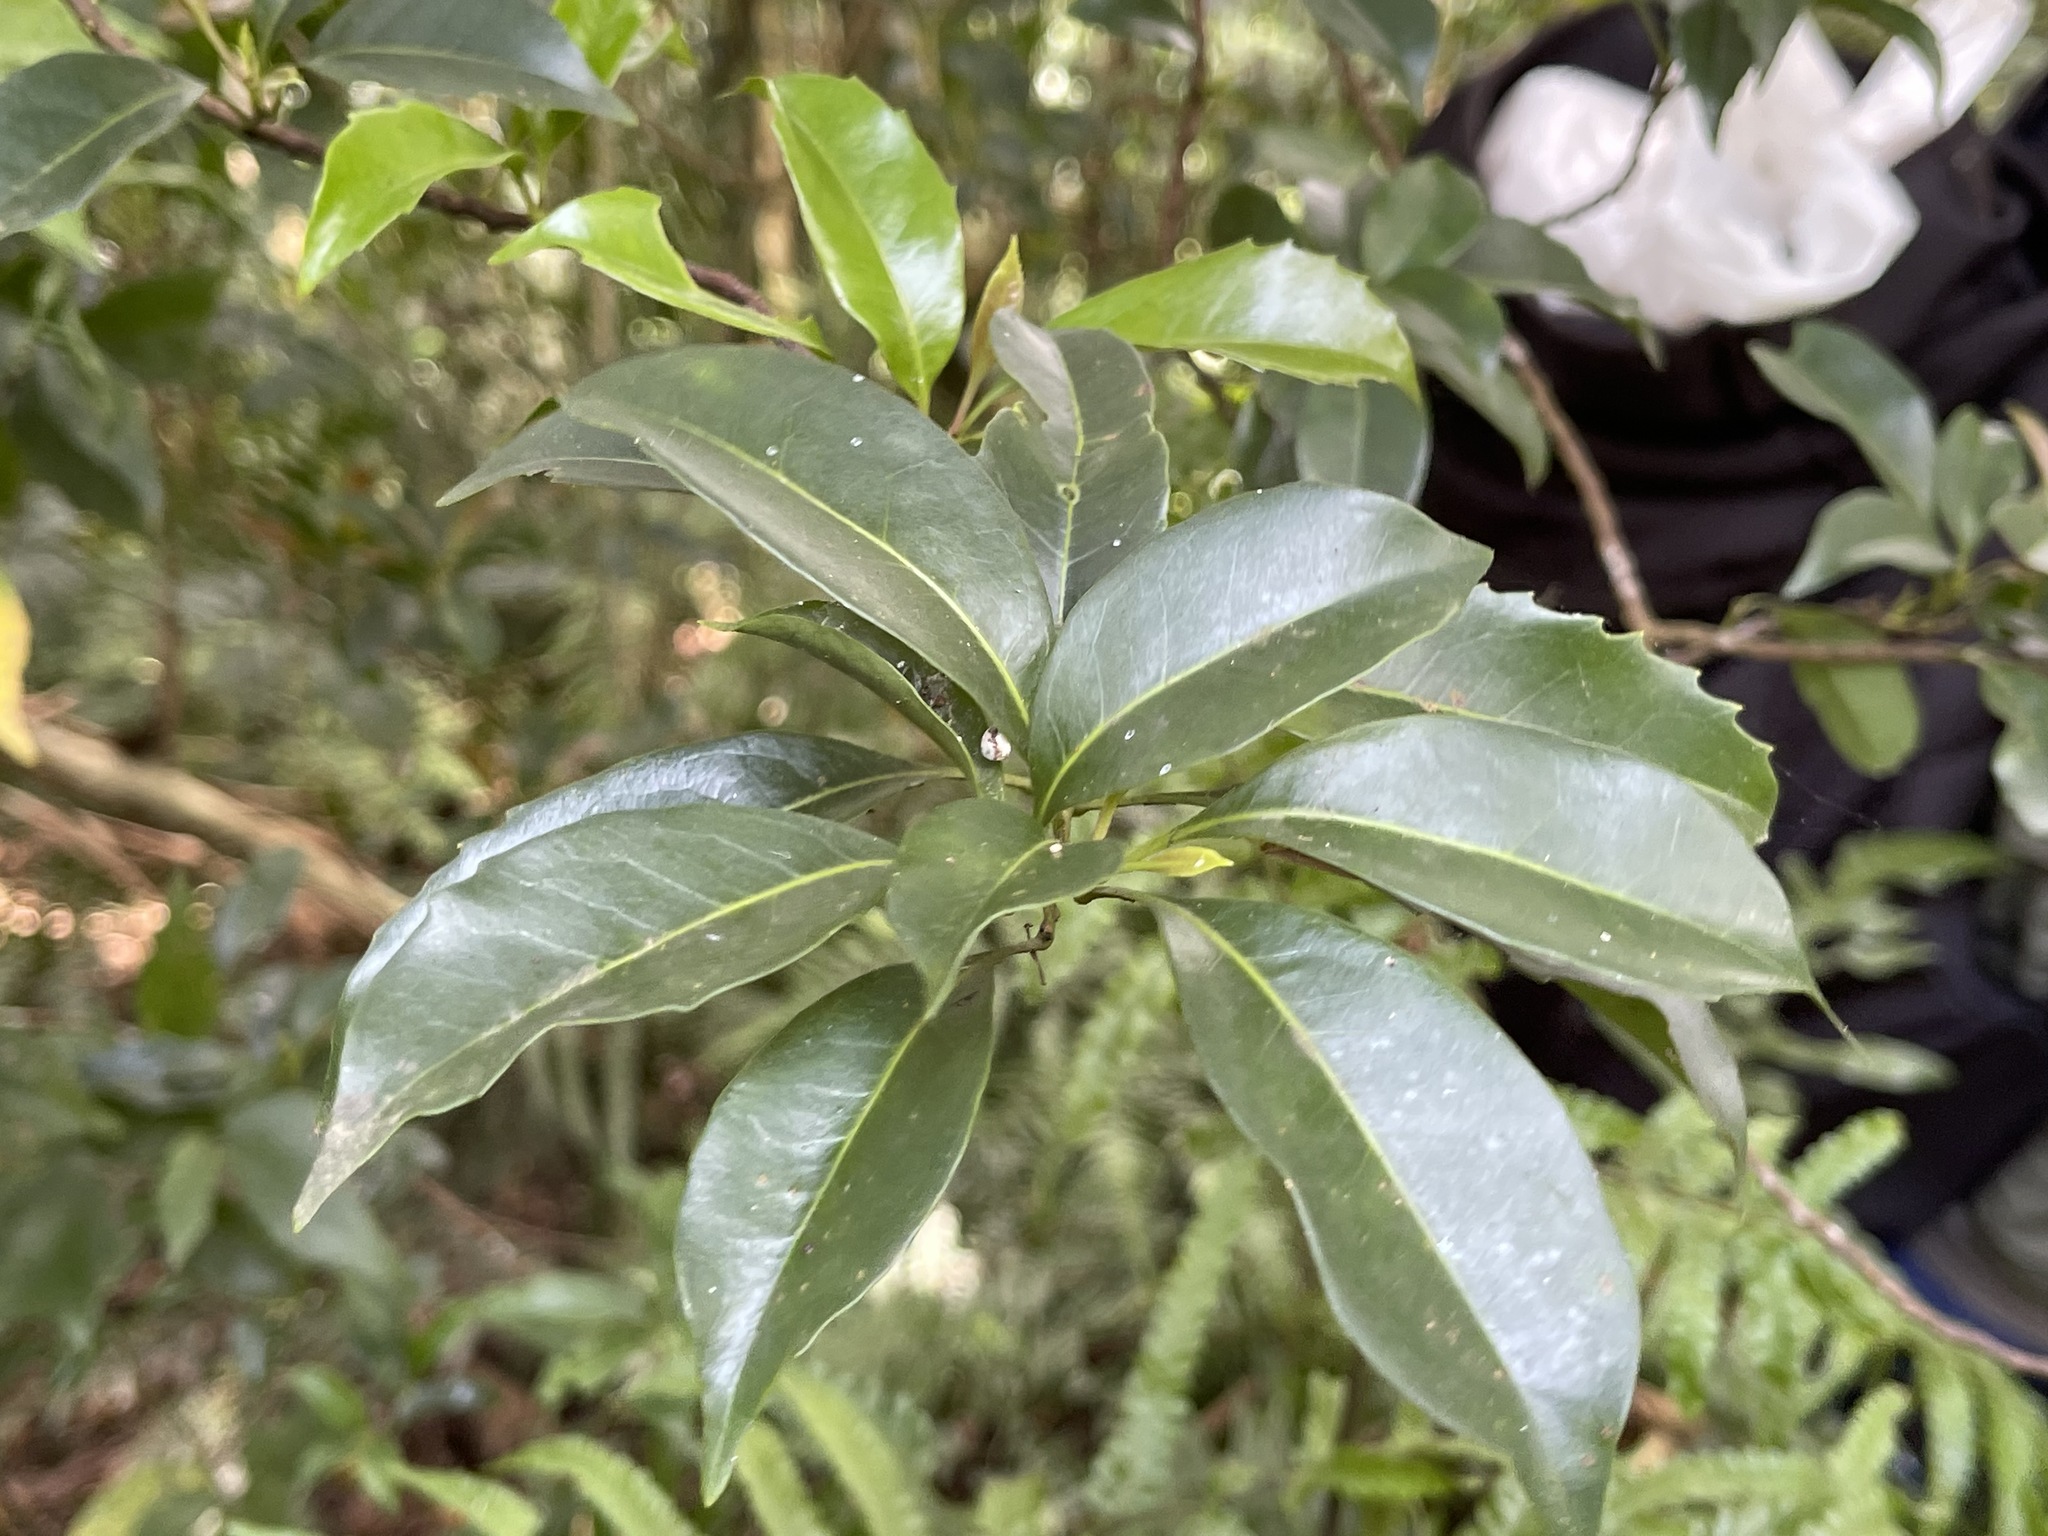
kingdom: Plantae
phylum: Tracheophyta
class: Magnoliopsida
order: Proteales
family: Proteaceae
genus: Helicia
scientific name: Helicia cochinchinensis
